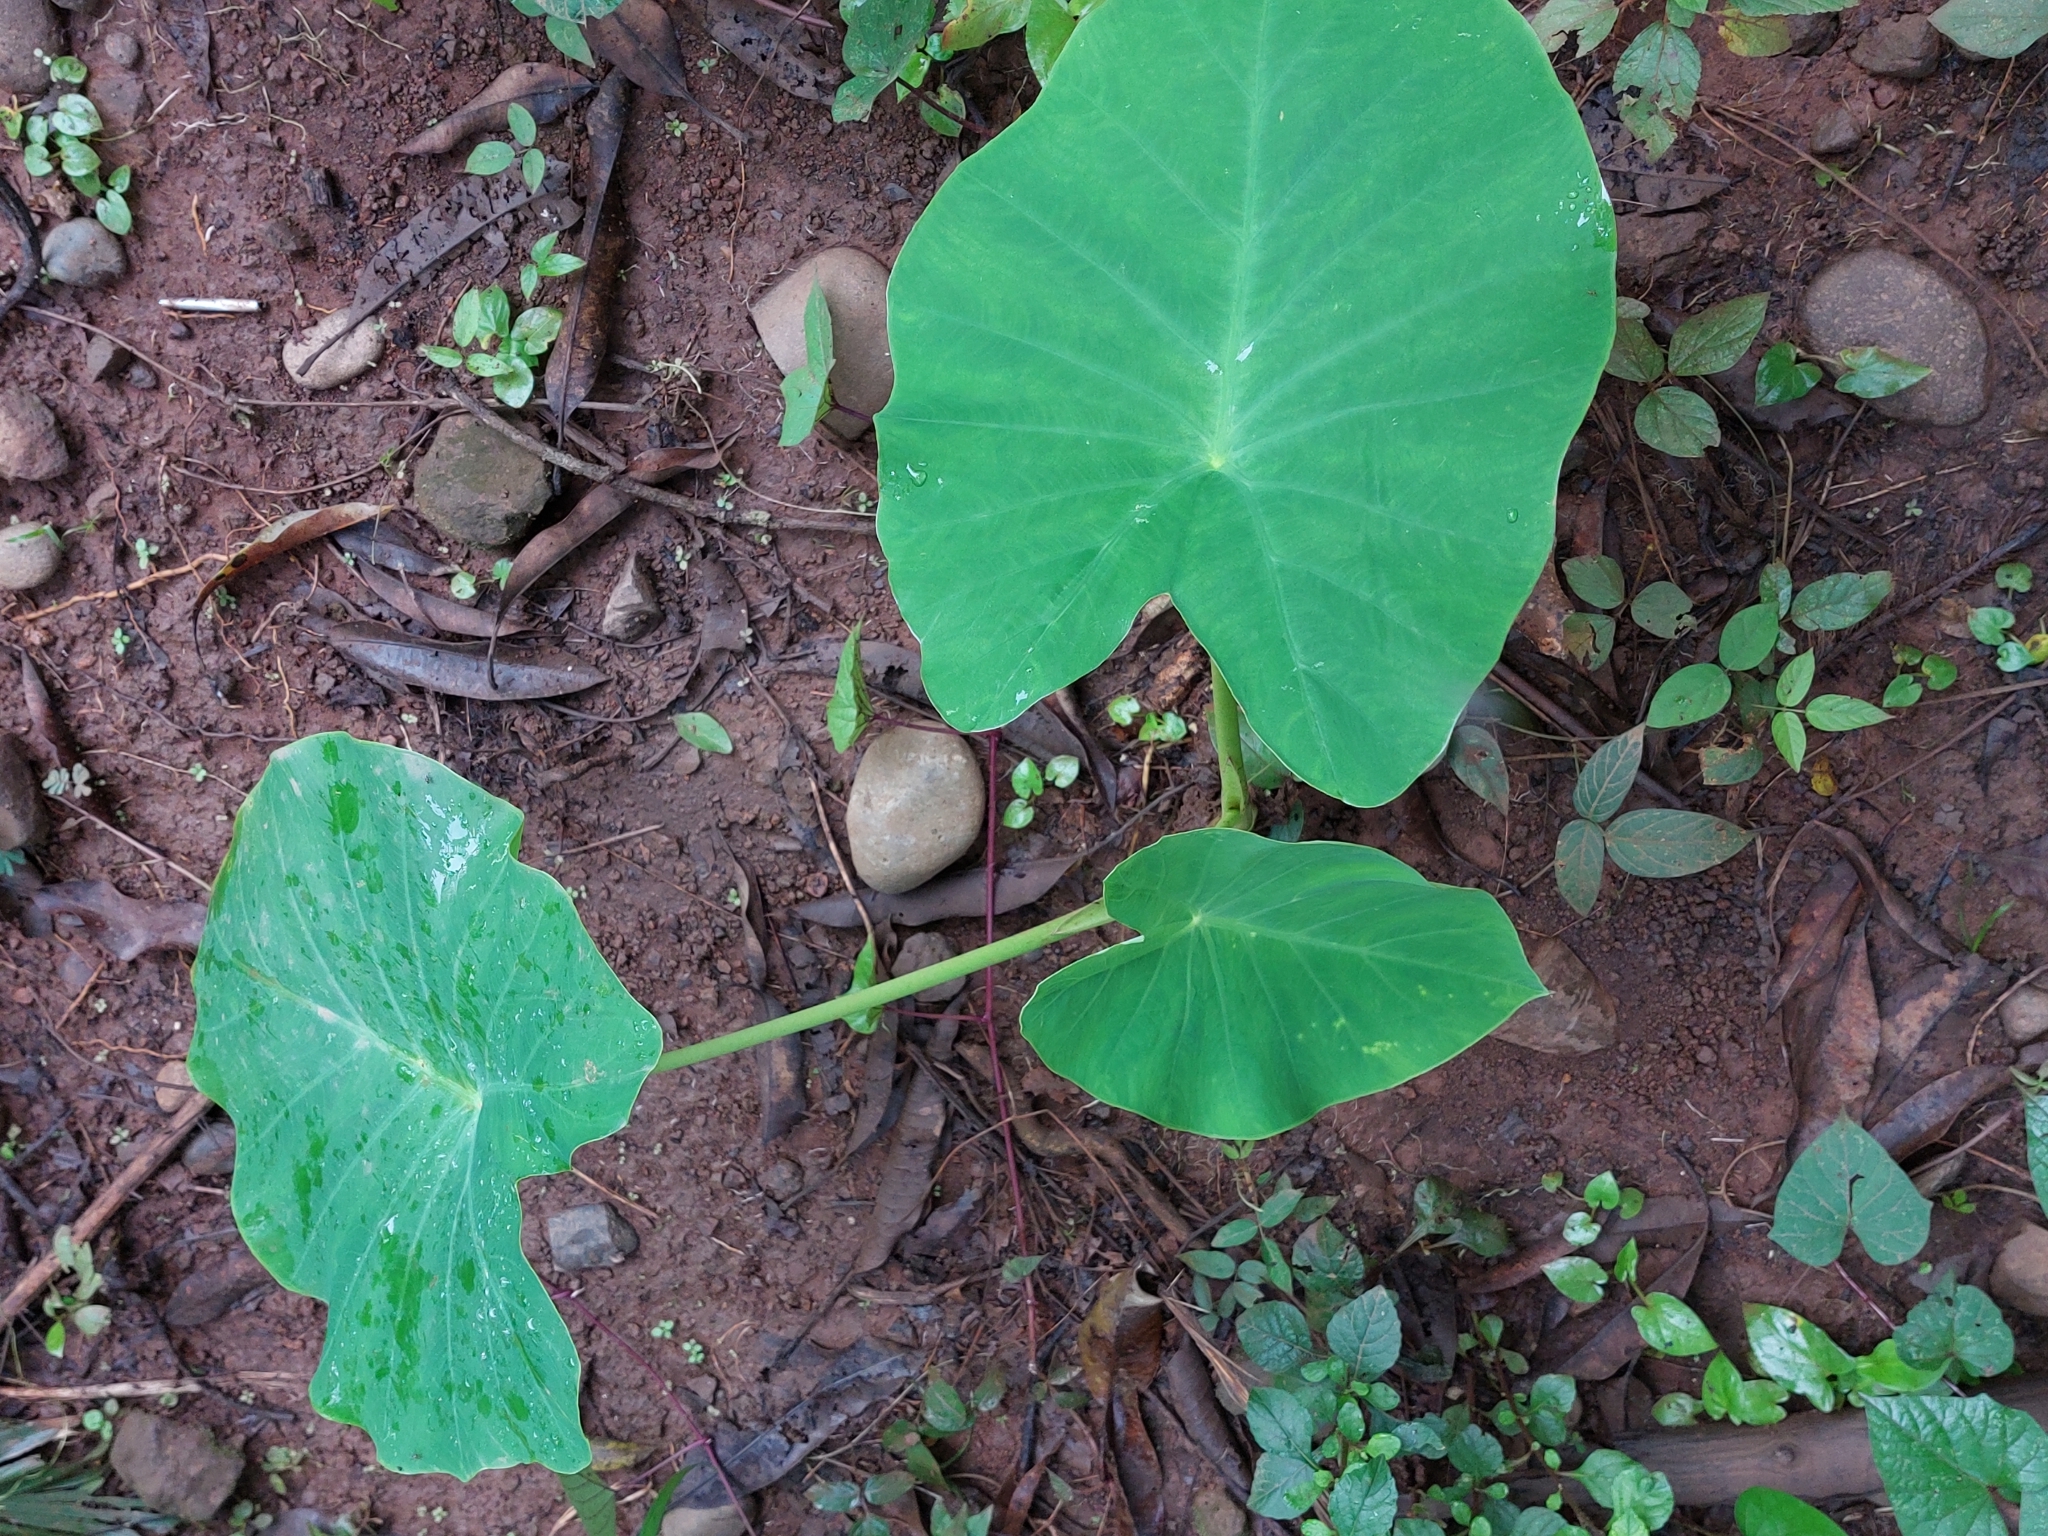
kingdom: Plantae
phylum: Tracheophyta
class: Liliopsida
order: Alismatales
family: Araceae
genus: Colocasia
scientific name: Colocasia esculenta
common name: Taro
